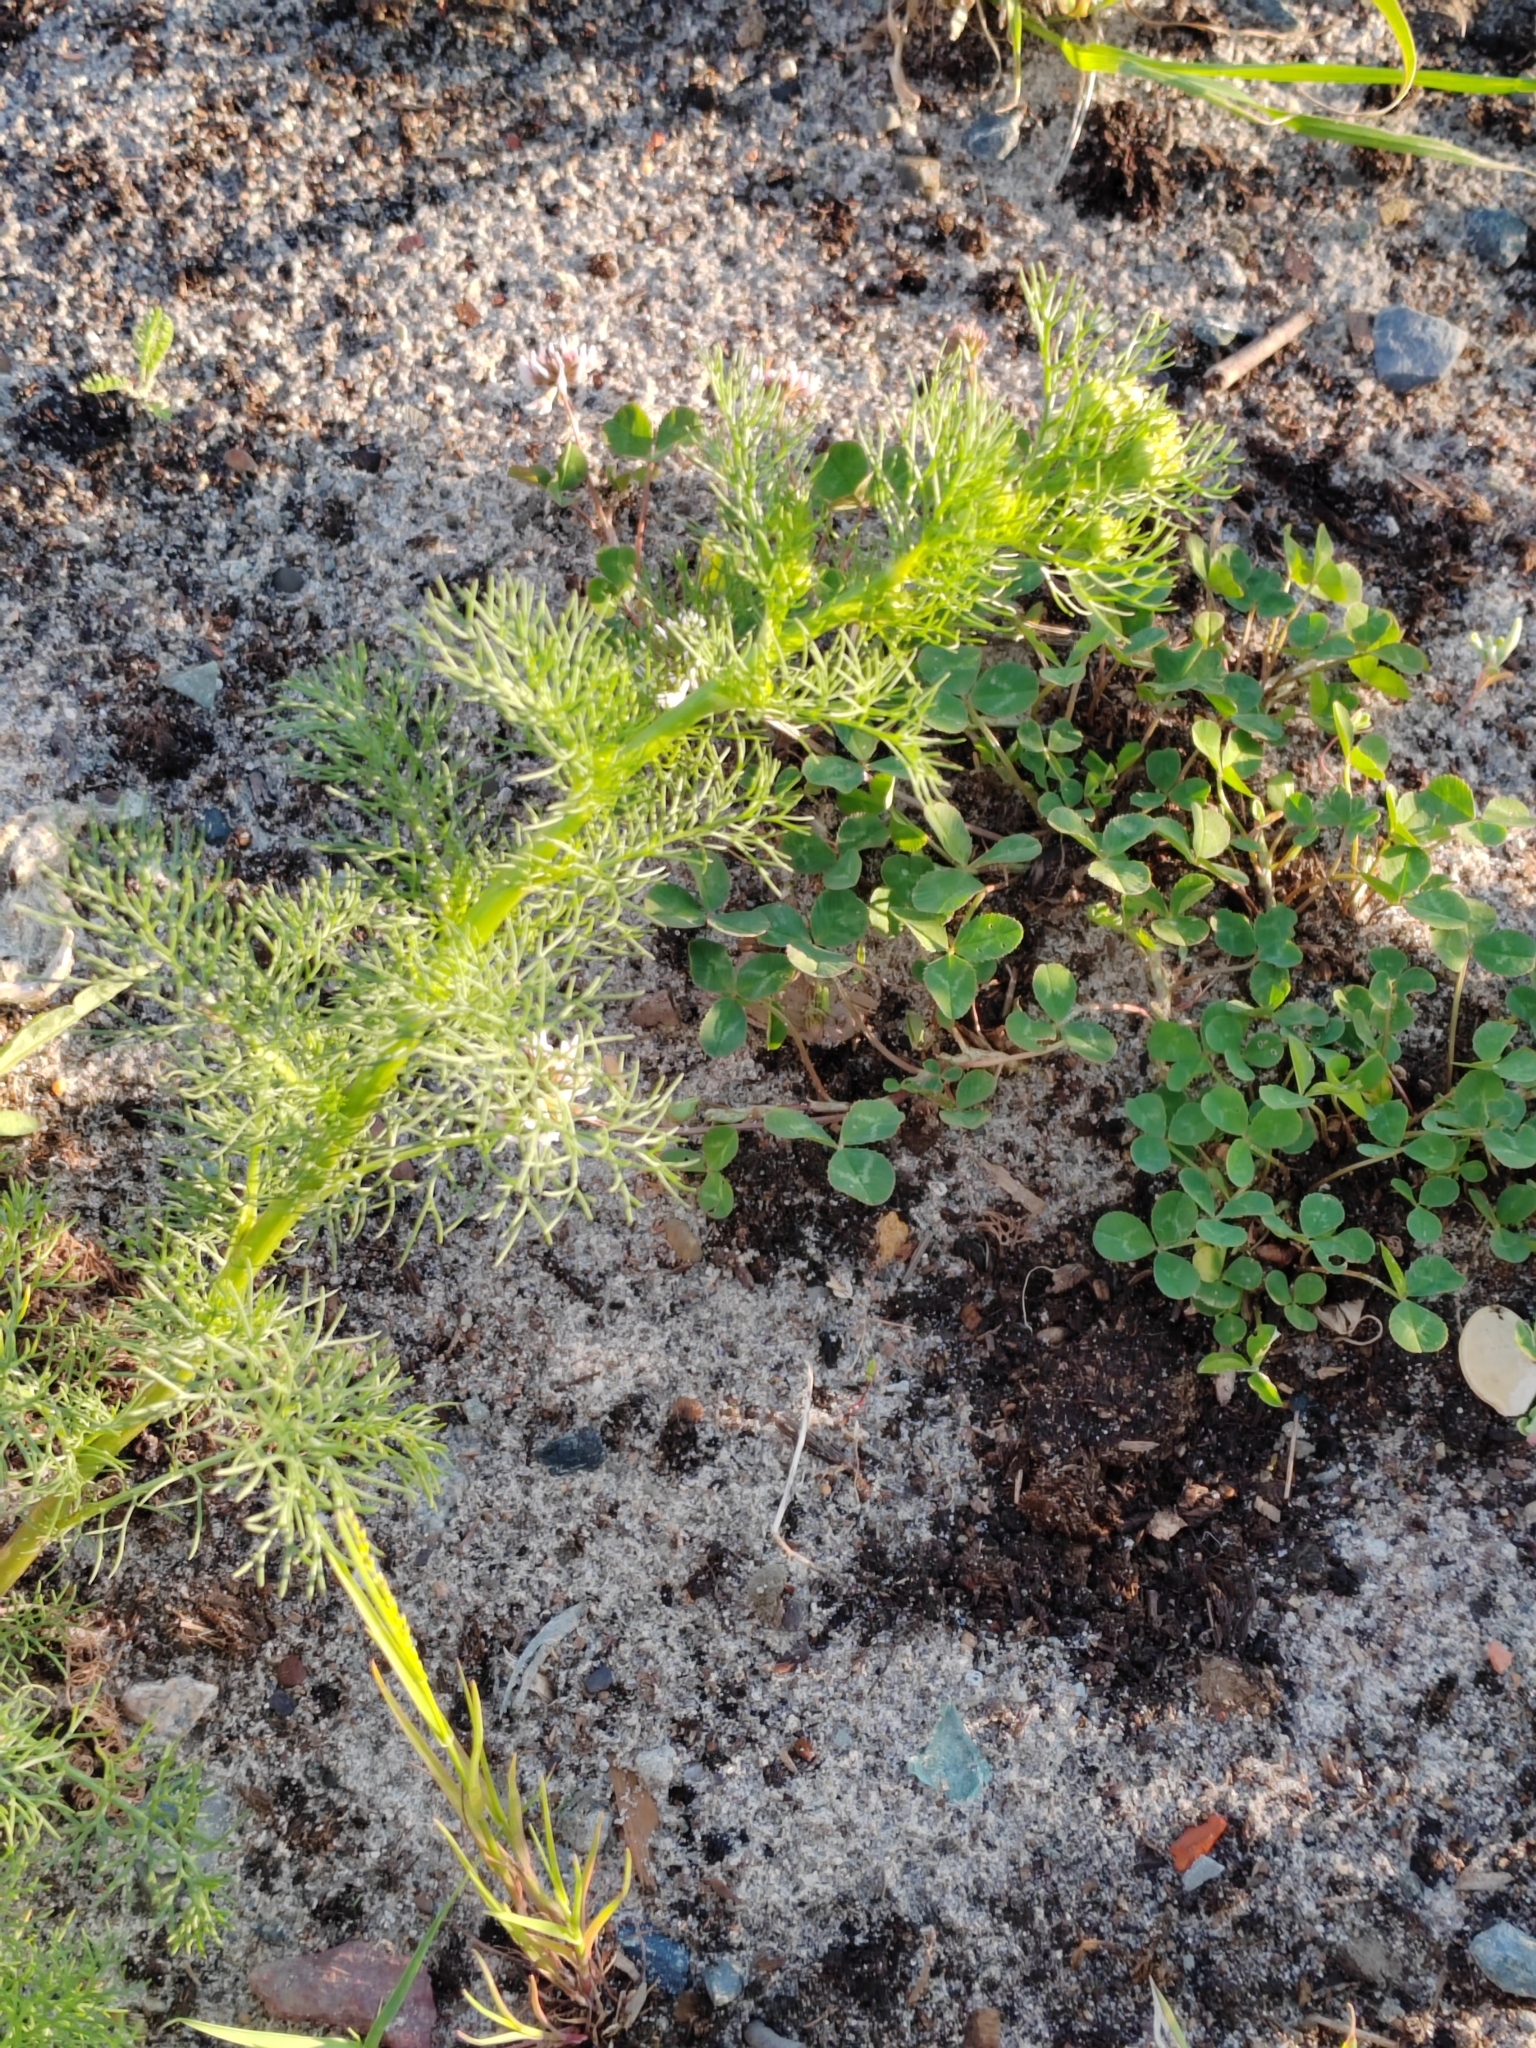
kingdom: Plantae
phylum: Tracheophyta
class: Magnoliopsida
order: Asterales
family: Asteraceae
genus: Tripleurospermum
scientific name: Tripleurospermum inodorum
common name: Scentless mayweed
